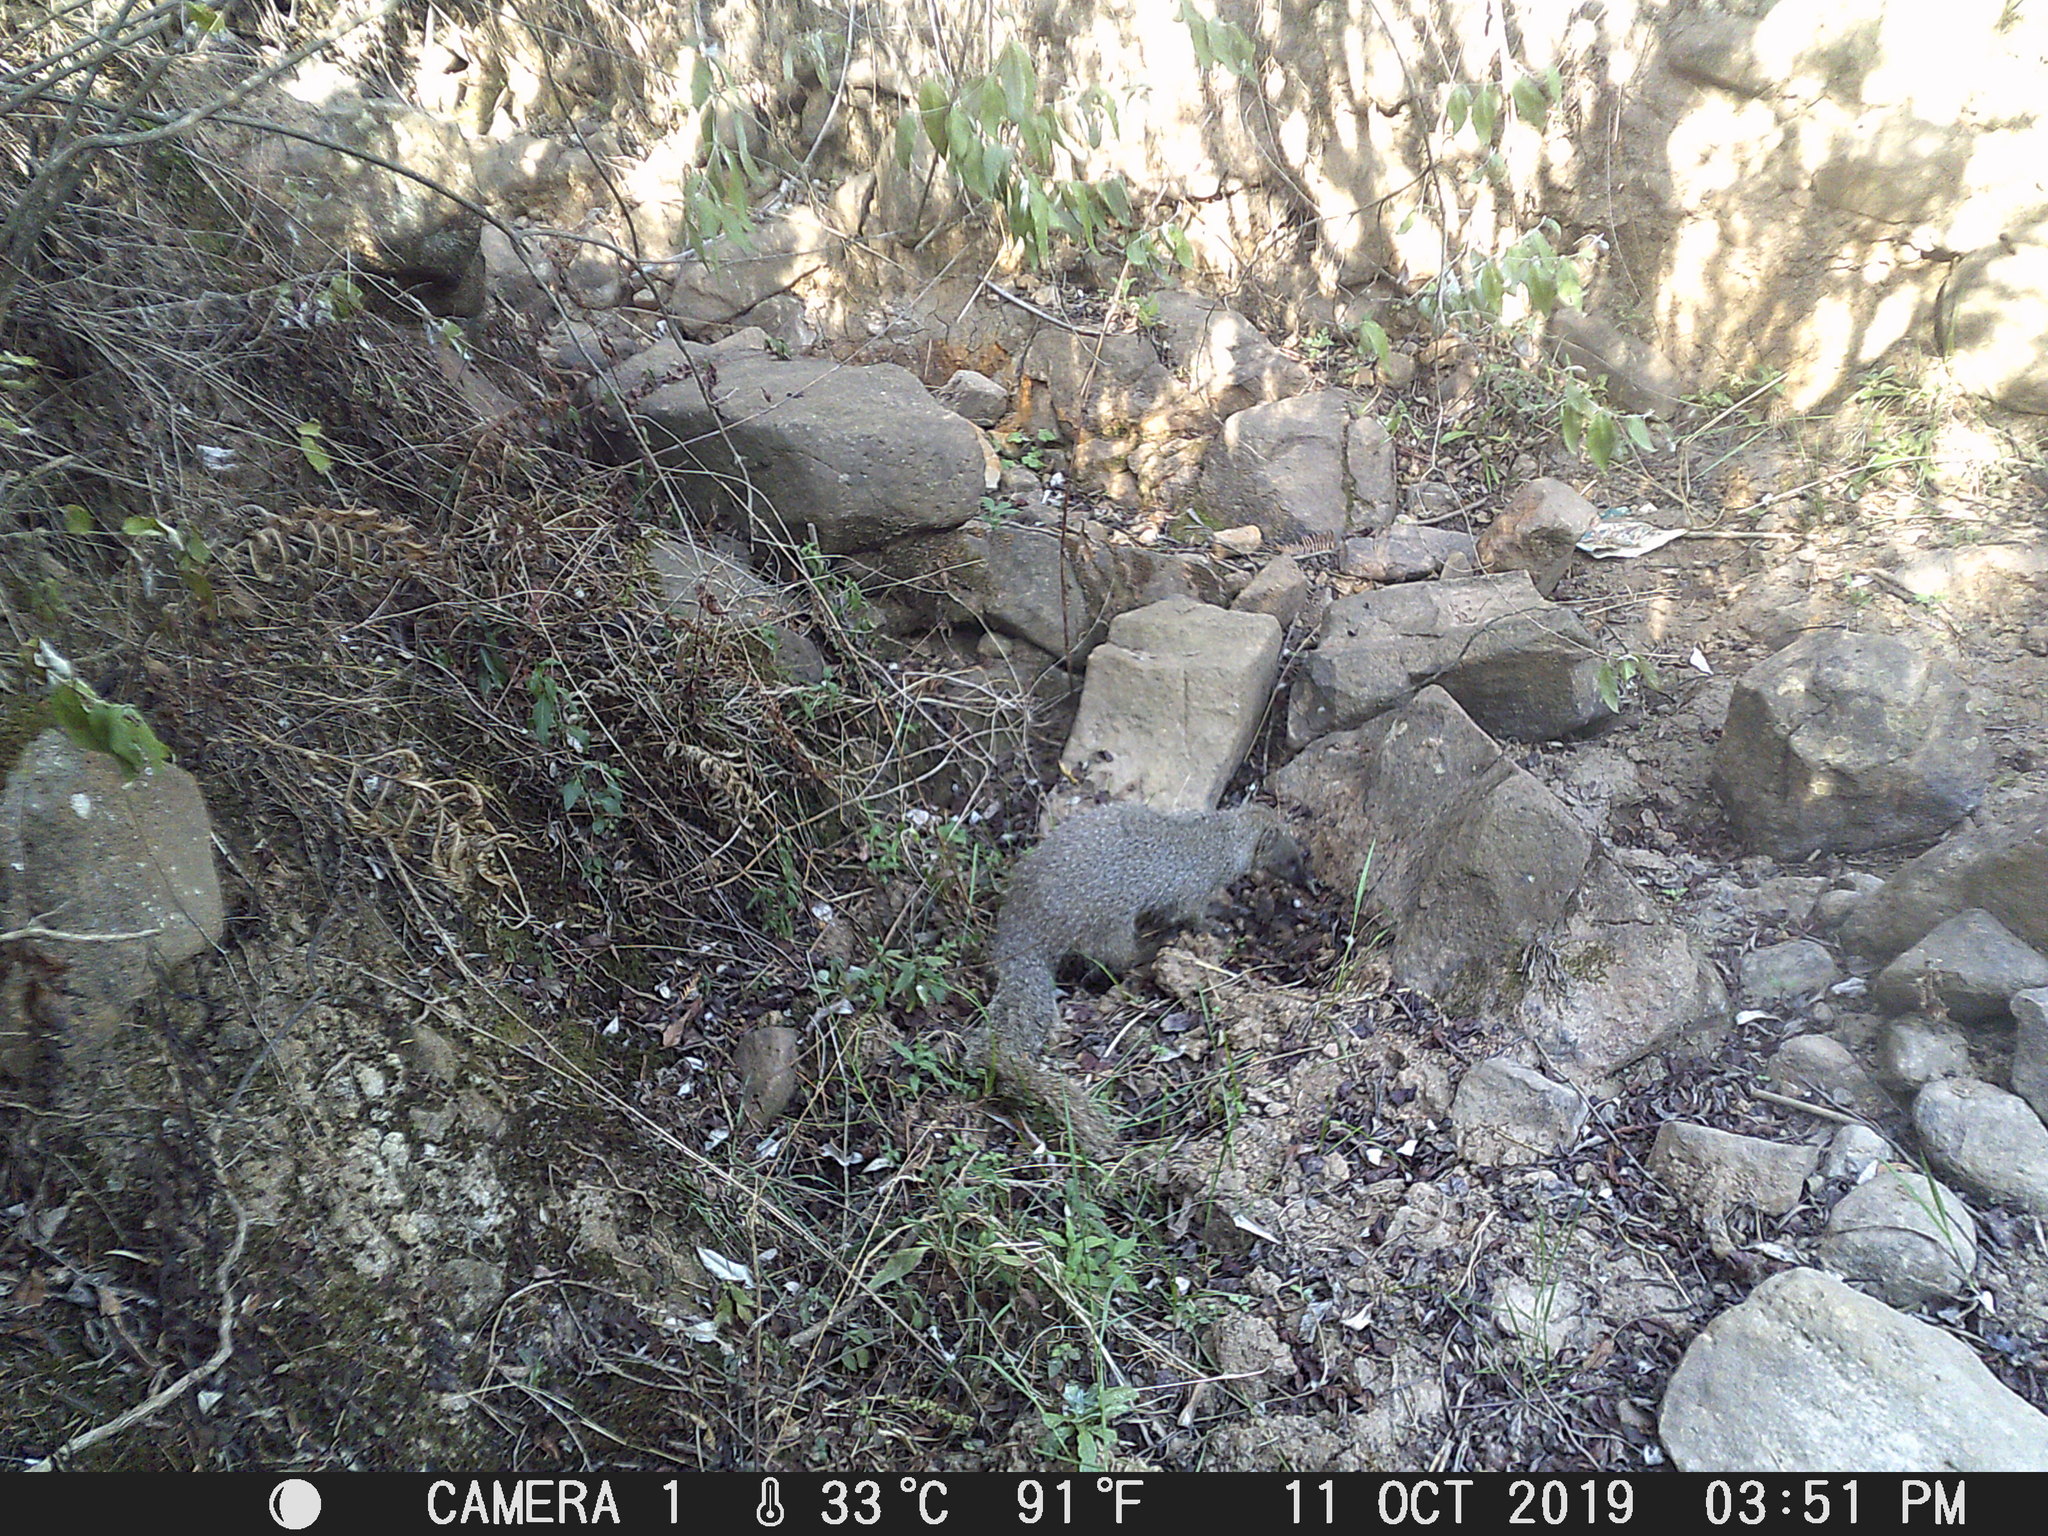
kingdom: Animalia
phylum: Chordata
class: Mammalia
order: Carnivora
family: Herpestidae
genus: Galerella
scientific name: Galerella pulverulenta
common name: Cape gray mongoose
